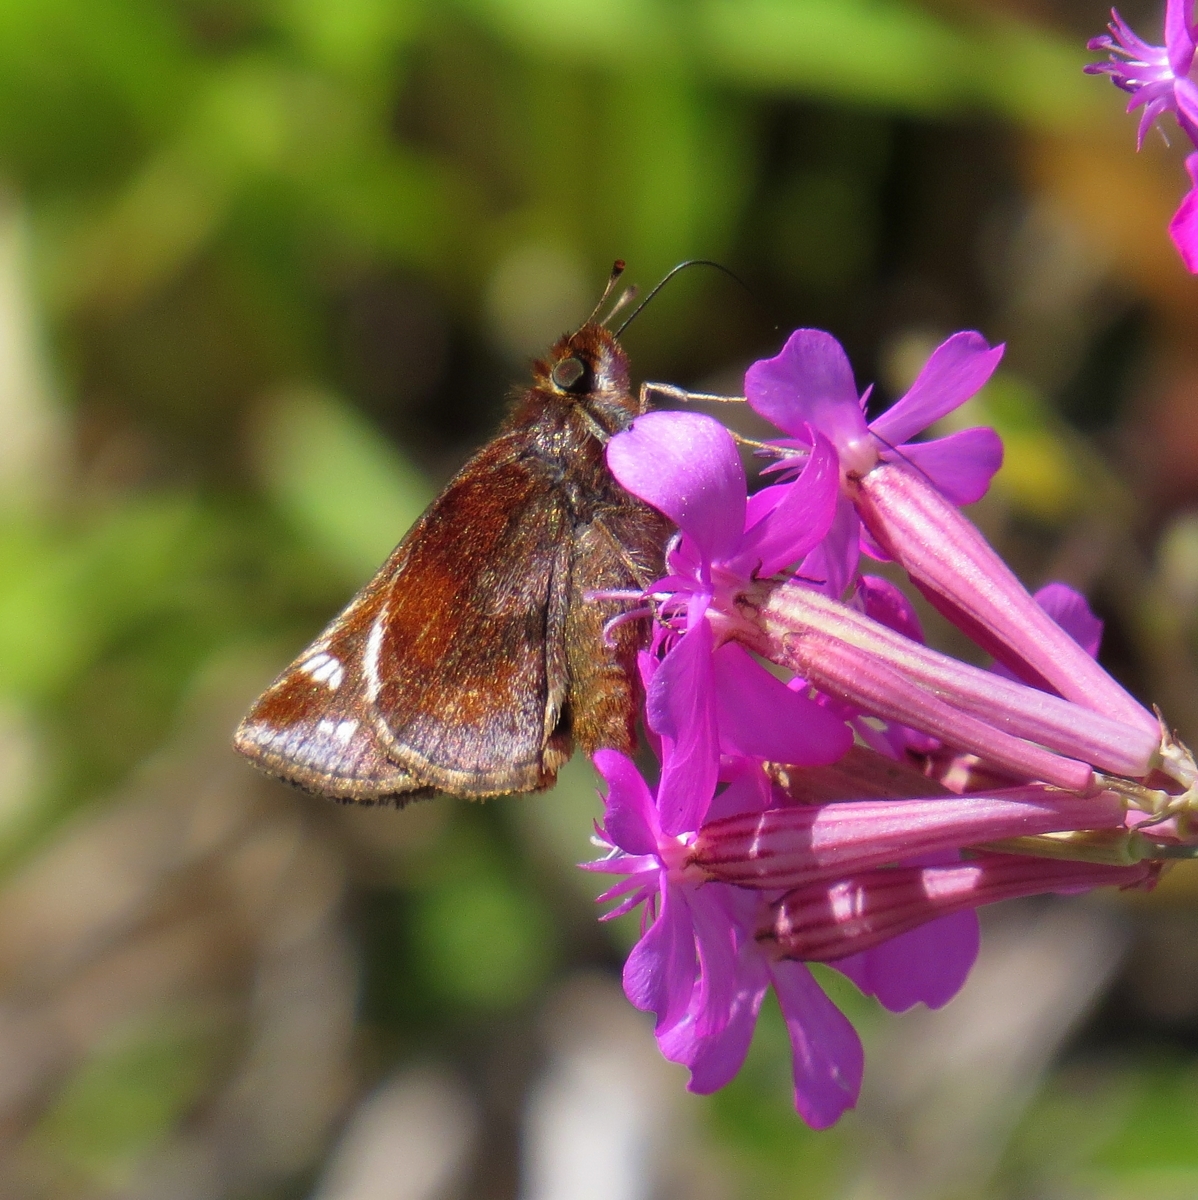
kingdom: Animalia
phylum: Arthropoda
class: Insecta
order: Lepidoptera
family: Hesperiidae
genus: Lon
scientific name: Lon zabulon
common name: Zabulon skipper
